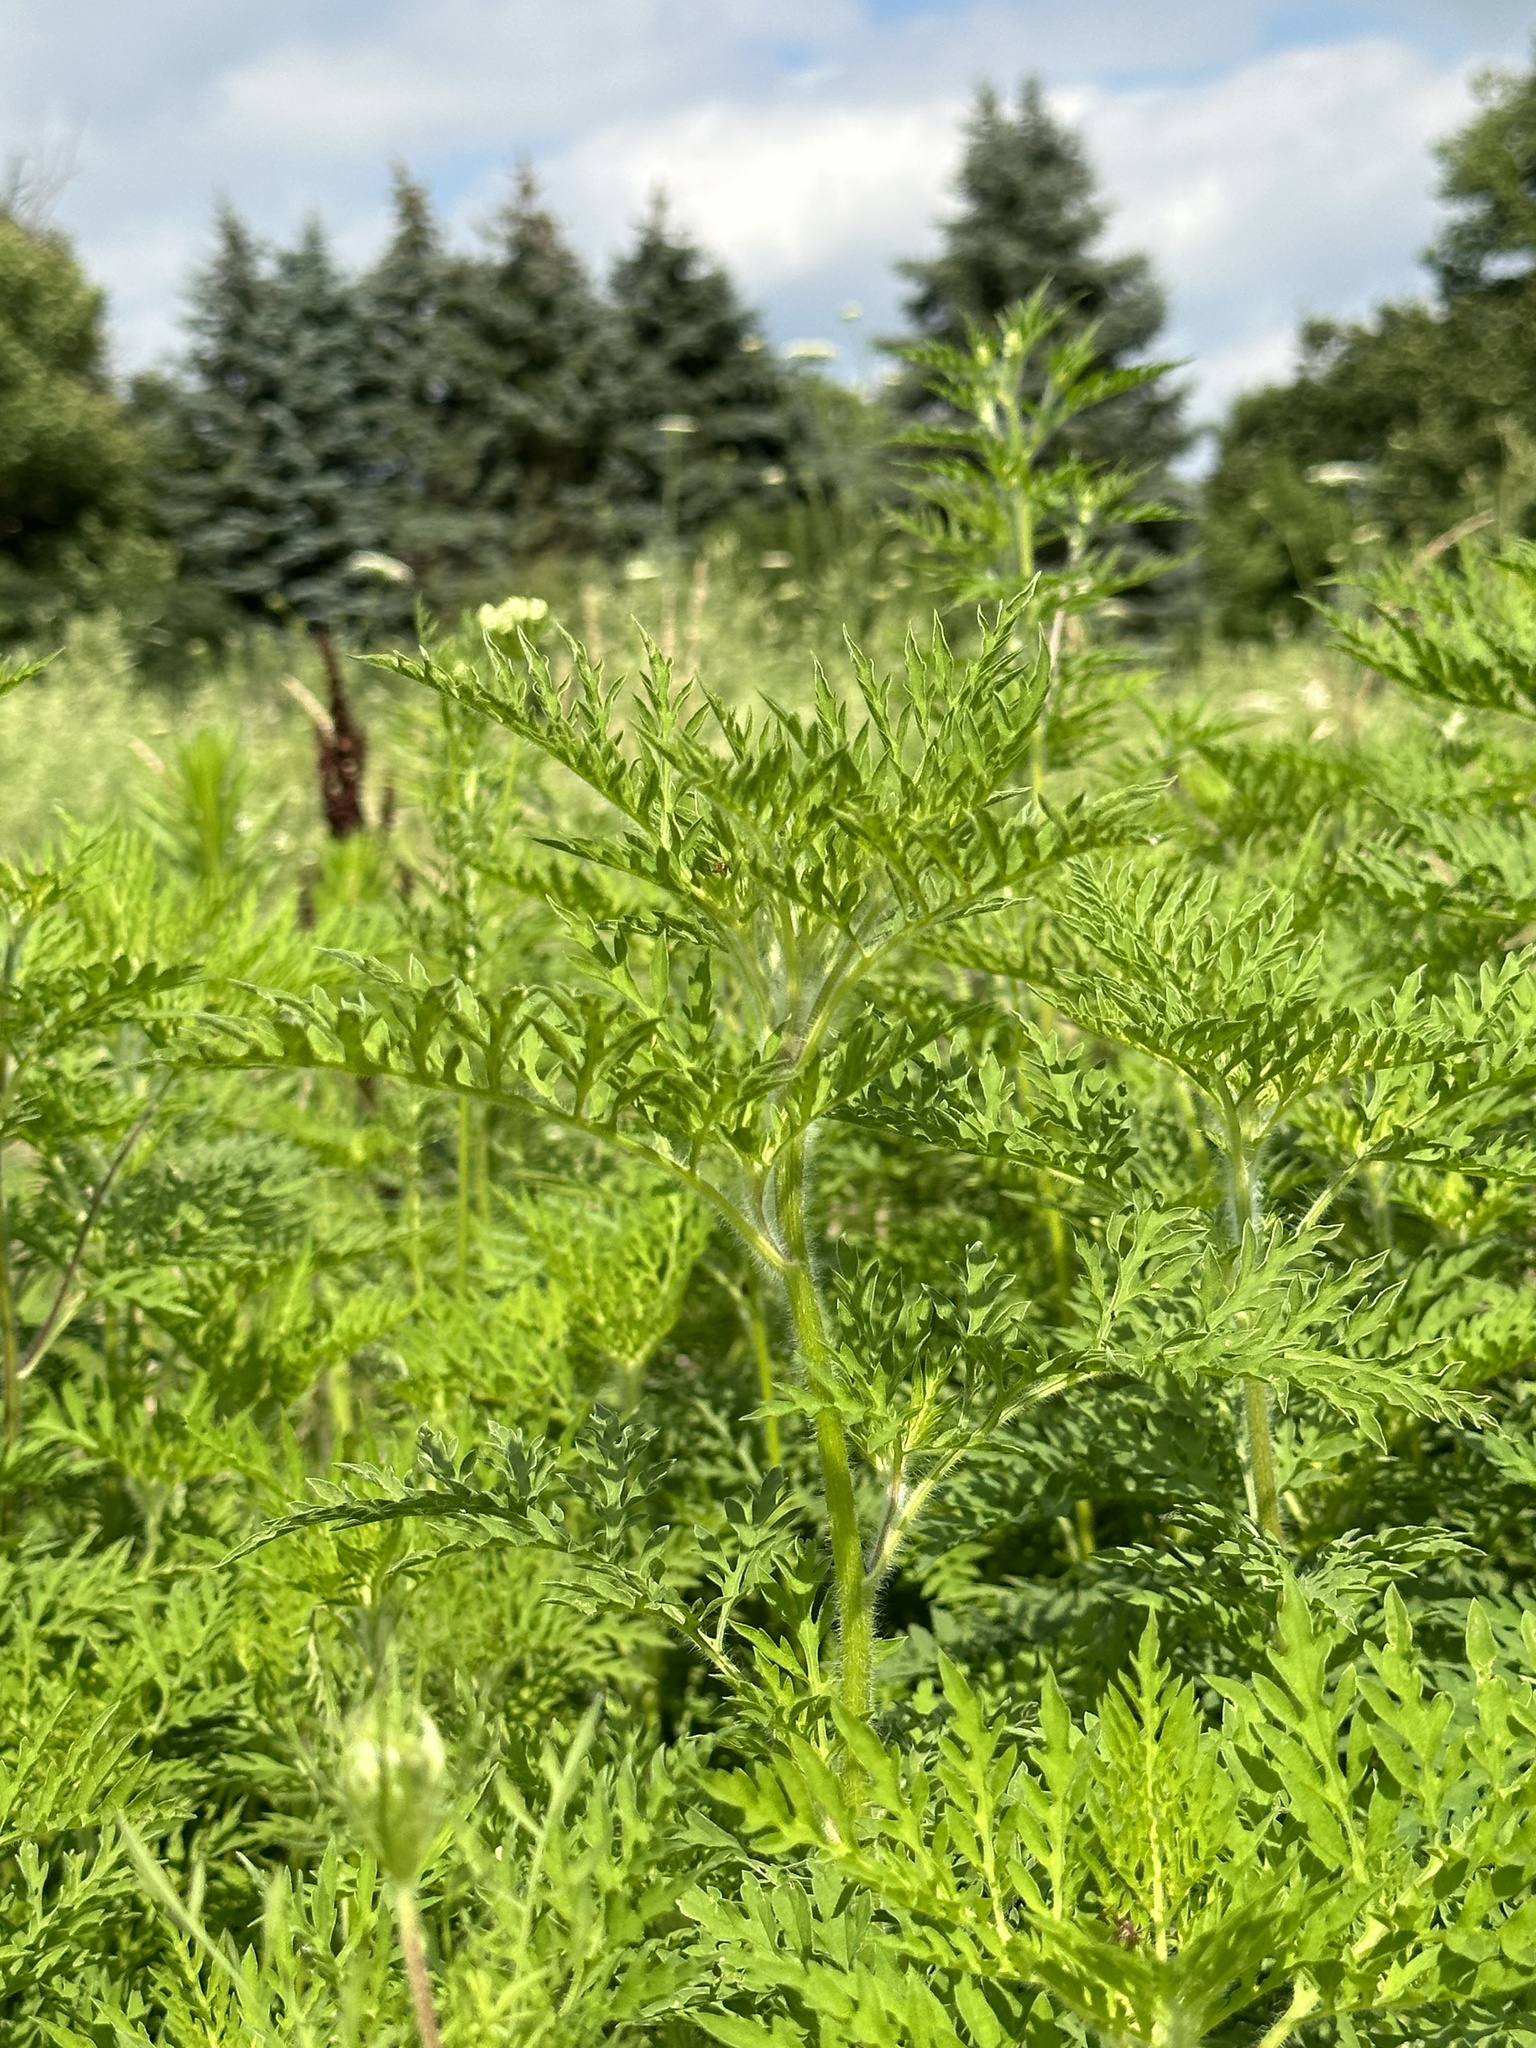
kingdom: Plantae
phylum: Tracheophyta
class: Magnoliopsida
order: Asterales
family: Asteraceae
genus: Ambrosia
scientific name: Ambrosia artemisiifolia
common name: Annual ragweed
